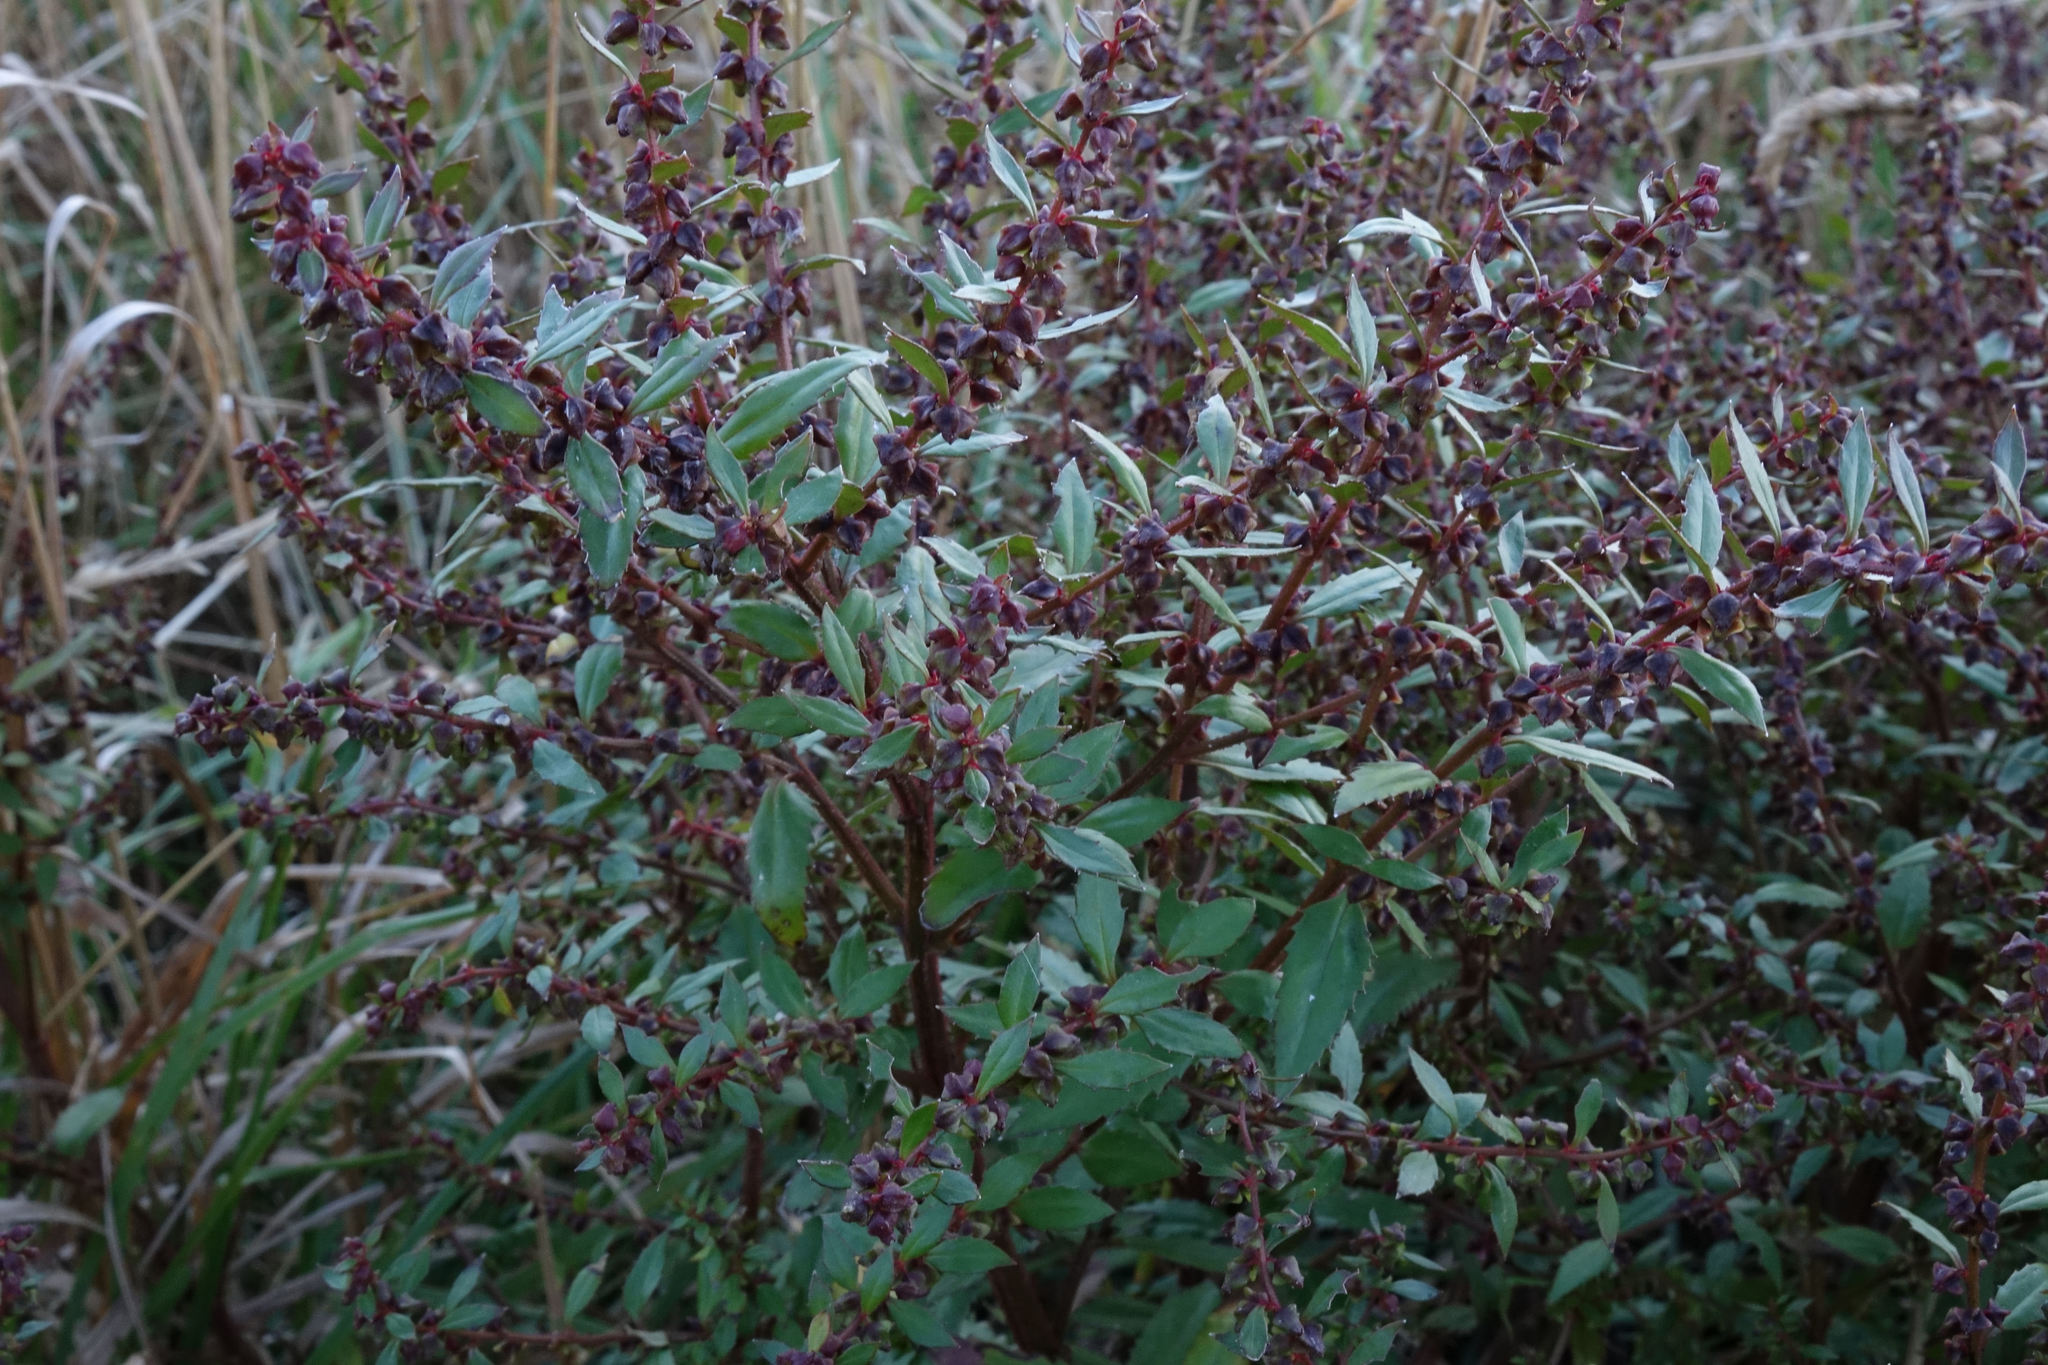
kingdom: Plantae
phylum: Tracheophyta
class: Magnoliopsida
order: Saxifragales
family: Haloragaceae
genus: Haloragis
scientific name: Haloragis erecta
